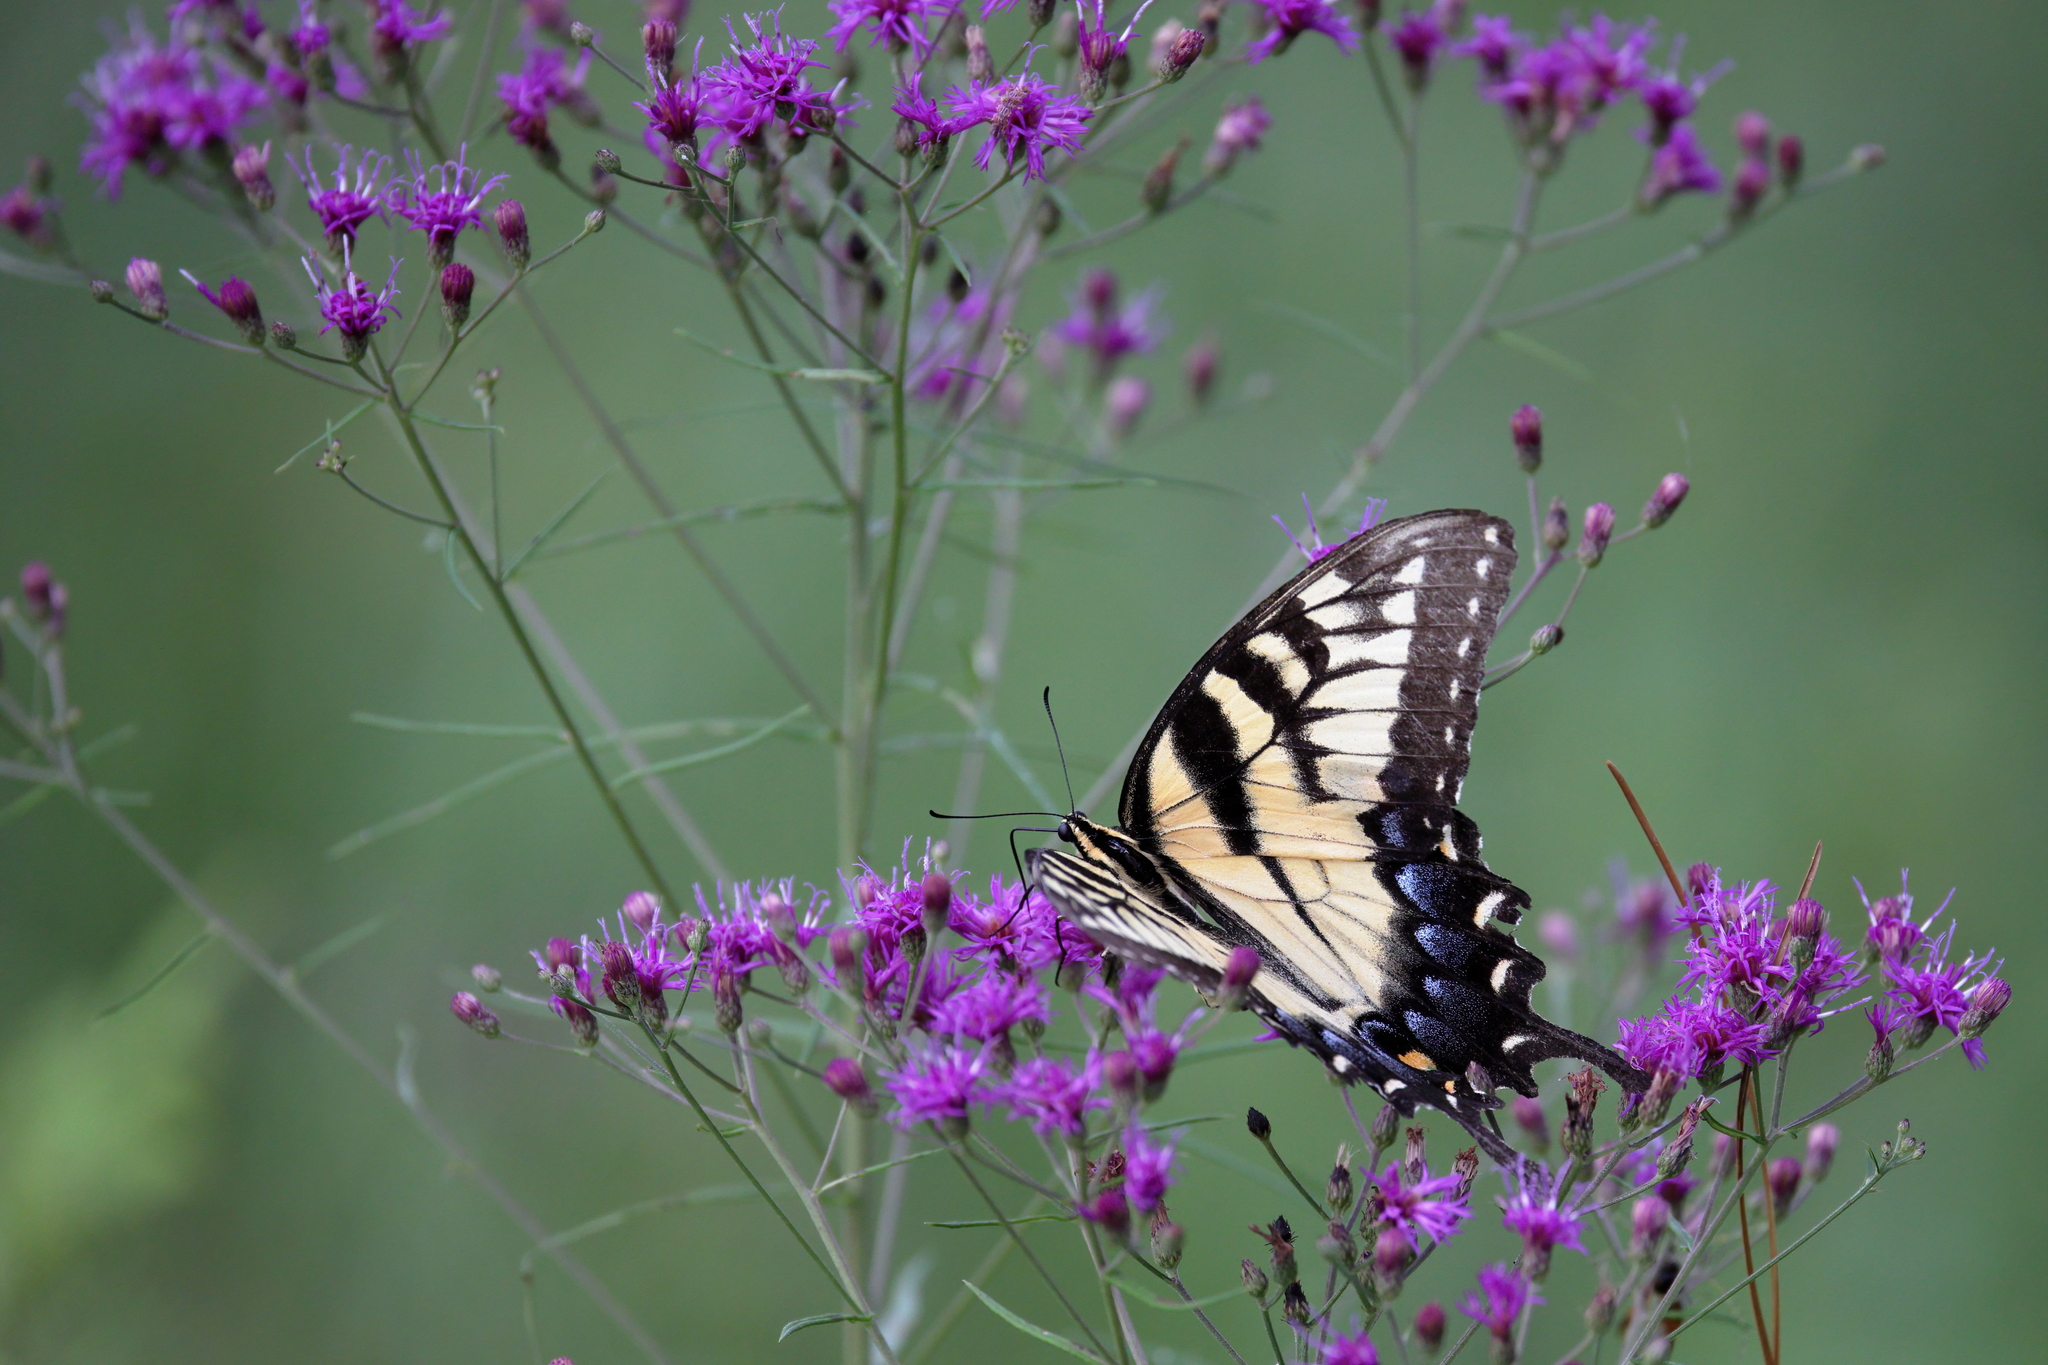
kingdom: Animalia
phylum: Arthropoda
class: Insecta
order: Lepidoptera
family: Papilionidae
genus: Papilio
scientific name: Papilio glaucus
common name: Tiger swallowtail
